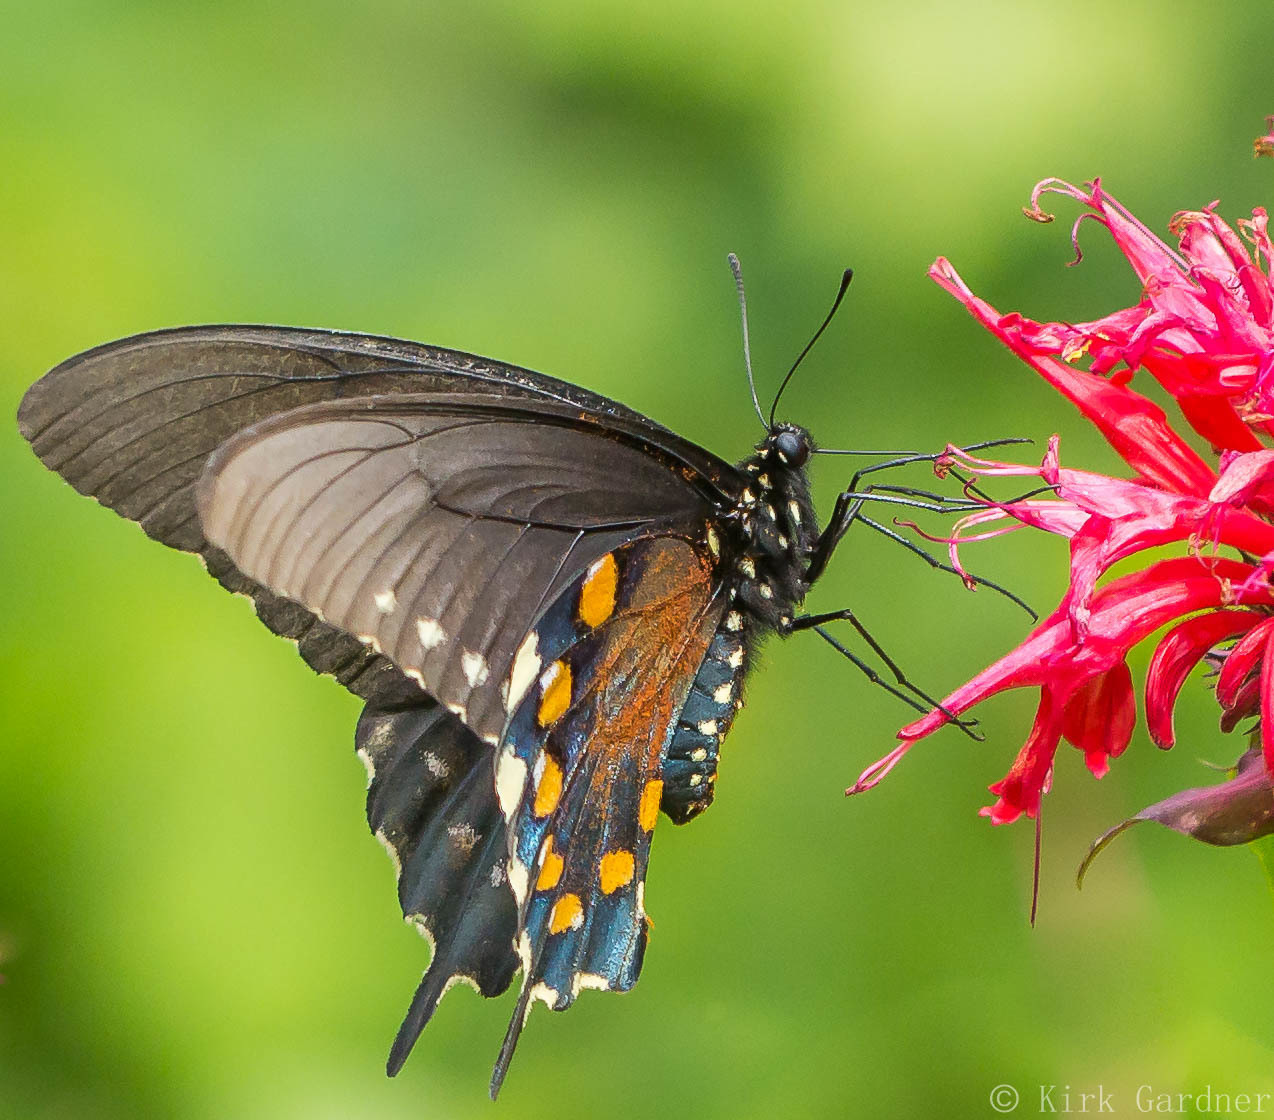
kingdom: Animalia
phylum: Arthropoda
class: Insecta
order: Lepidoptera
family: Papilionidae
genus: Battus
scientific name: Battus philenor
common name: Pipevine swallowtail
